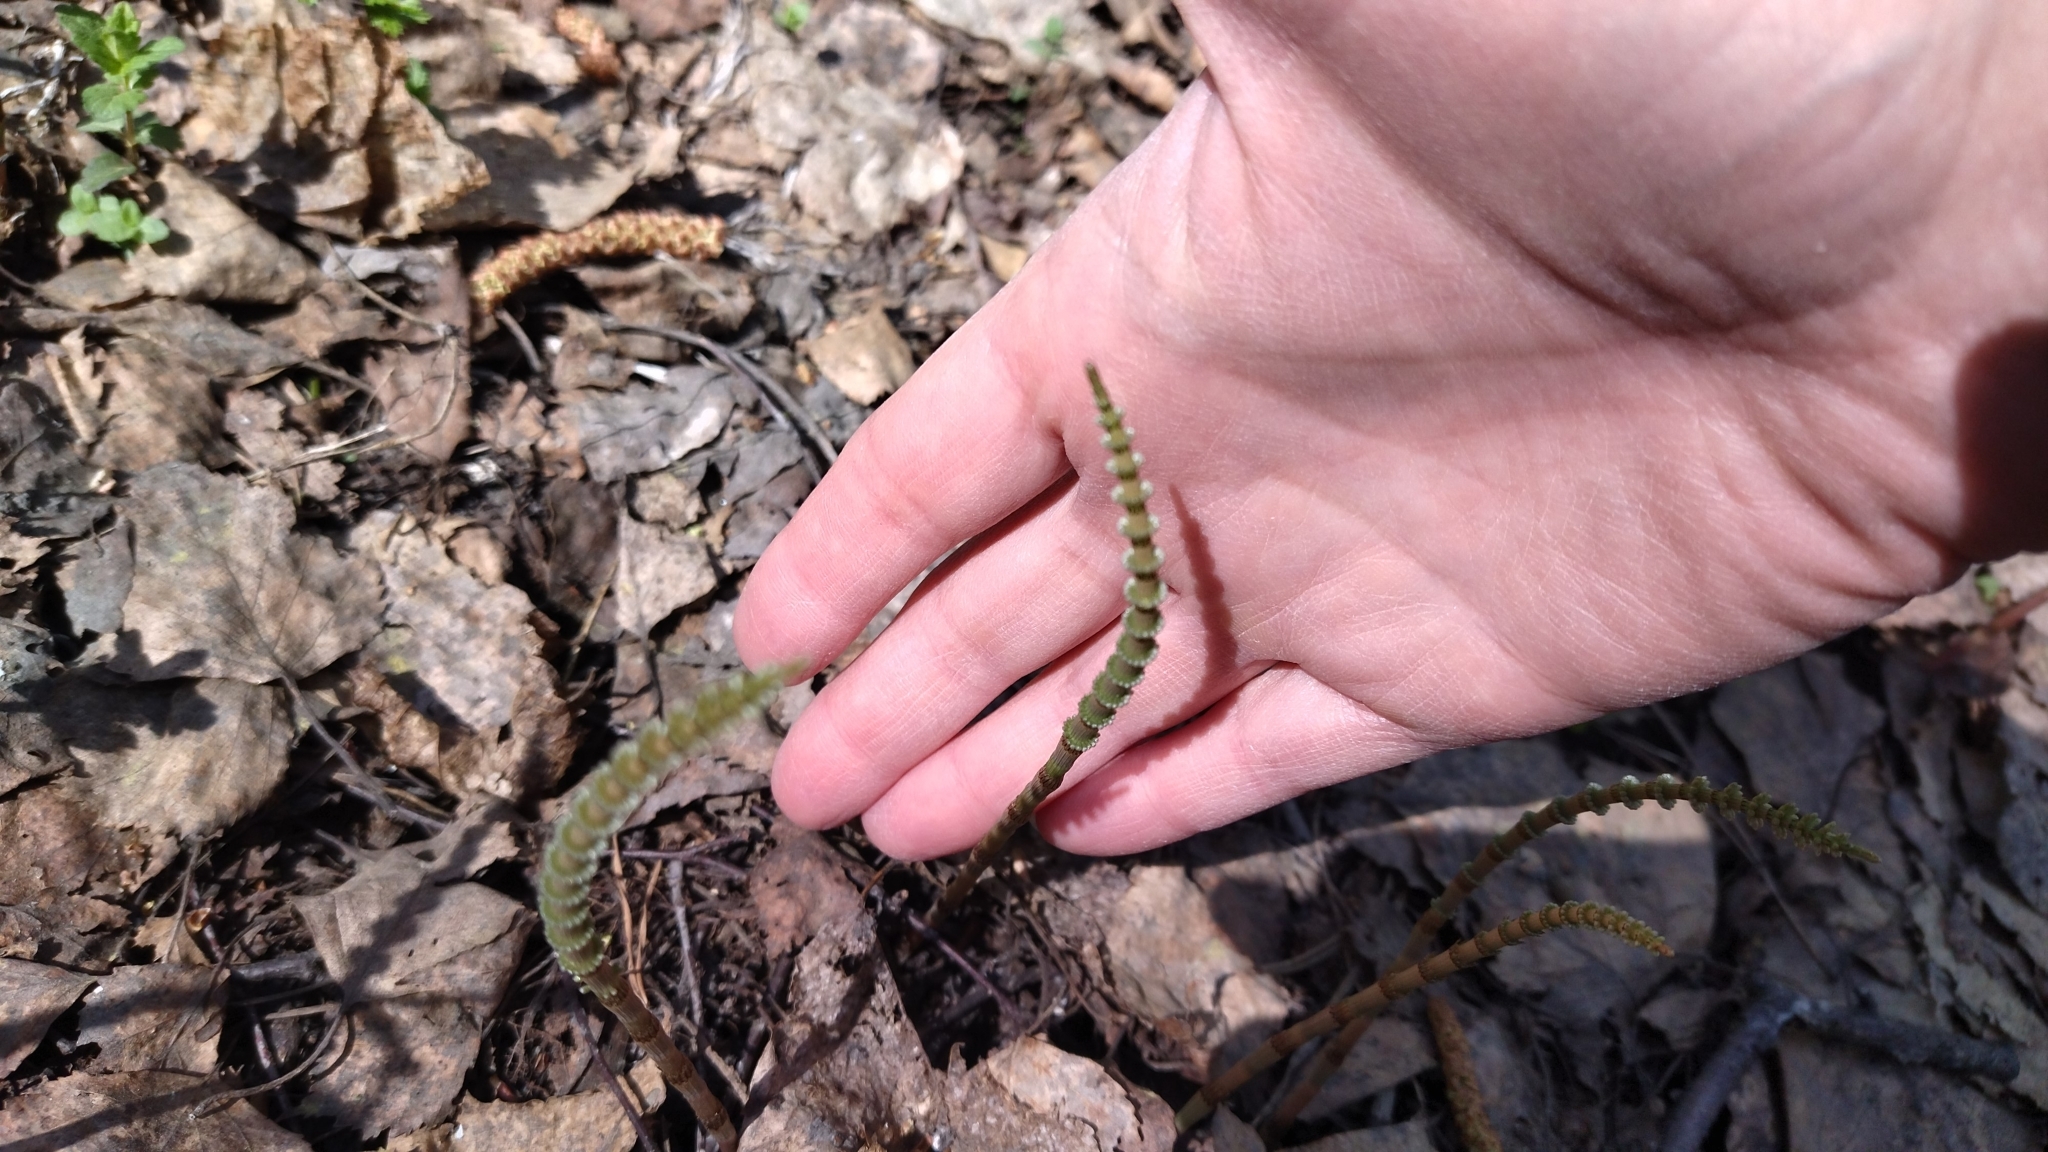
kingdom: Plantae
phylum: Tracheophyta
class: Polypodiopsida
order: Equisetales
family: Equisetaceae
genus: Equisetum
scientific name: Equisetum pratense
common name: Meadow horsetail
